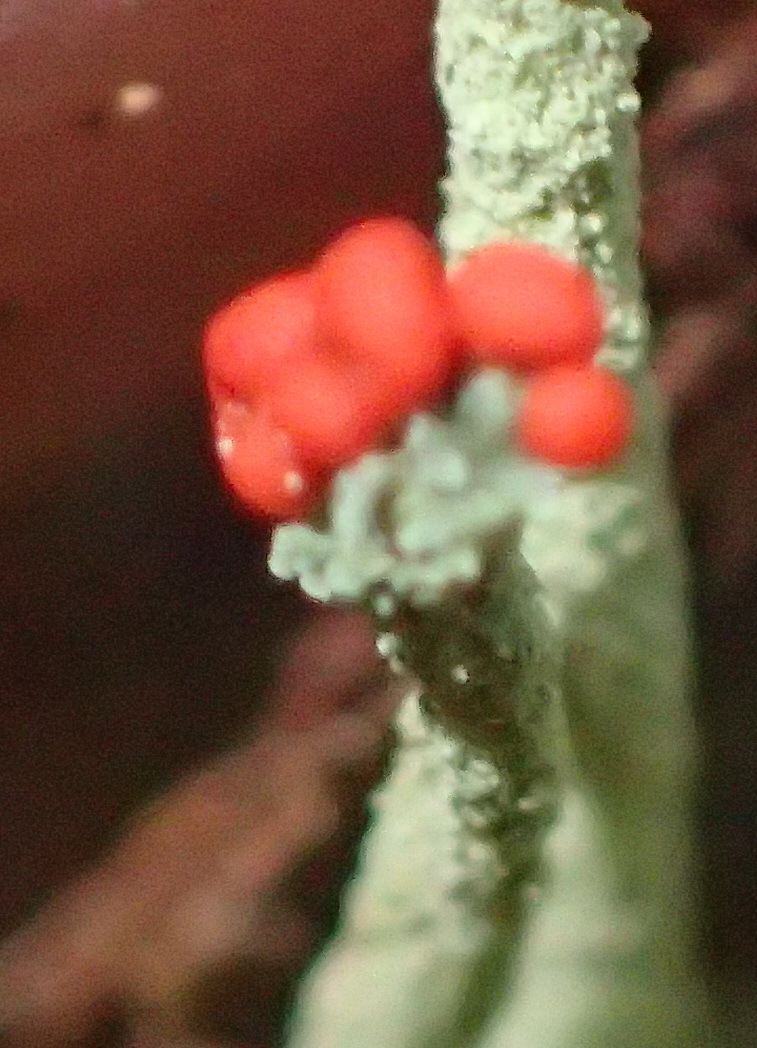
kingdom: Fungi
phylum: Ascomycota
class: Lecanoromycetes
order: Lecanorales
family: Cladoniaceae
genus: Cladonia
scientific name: Cladonia macilenta
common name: Lipstick powderhorn
